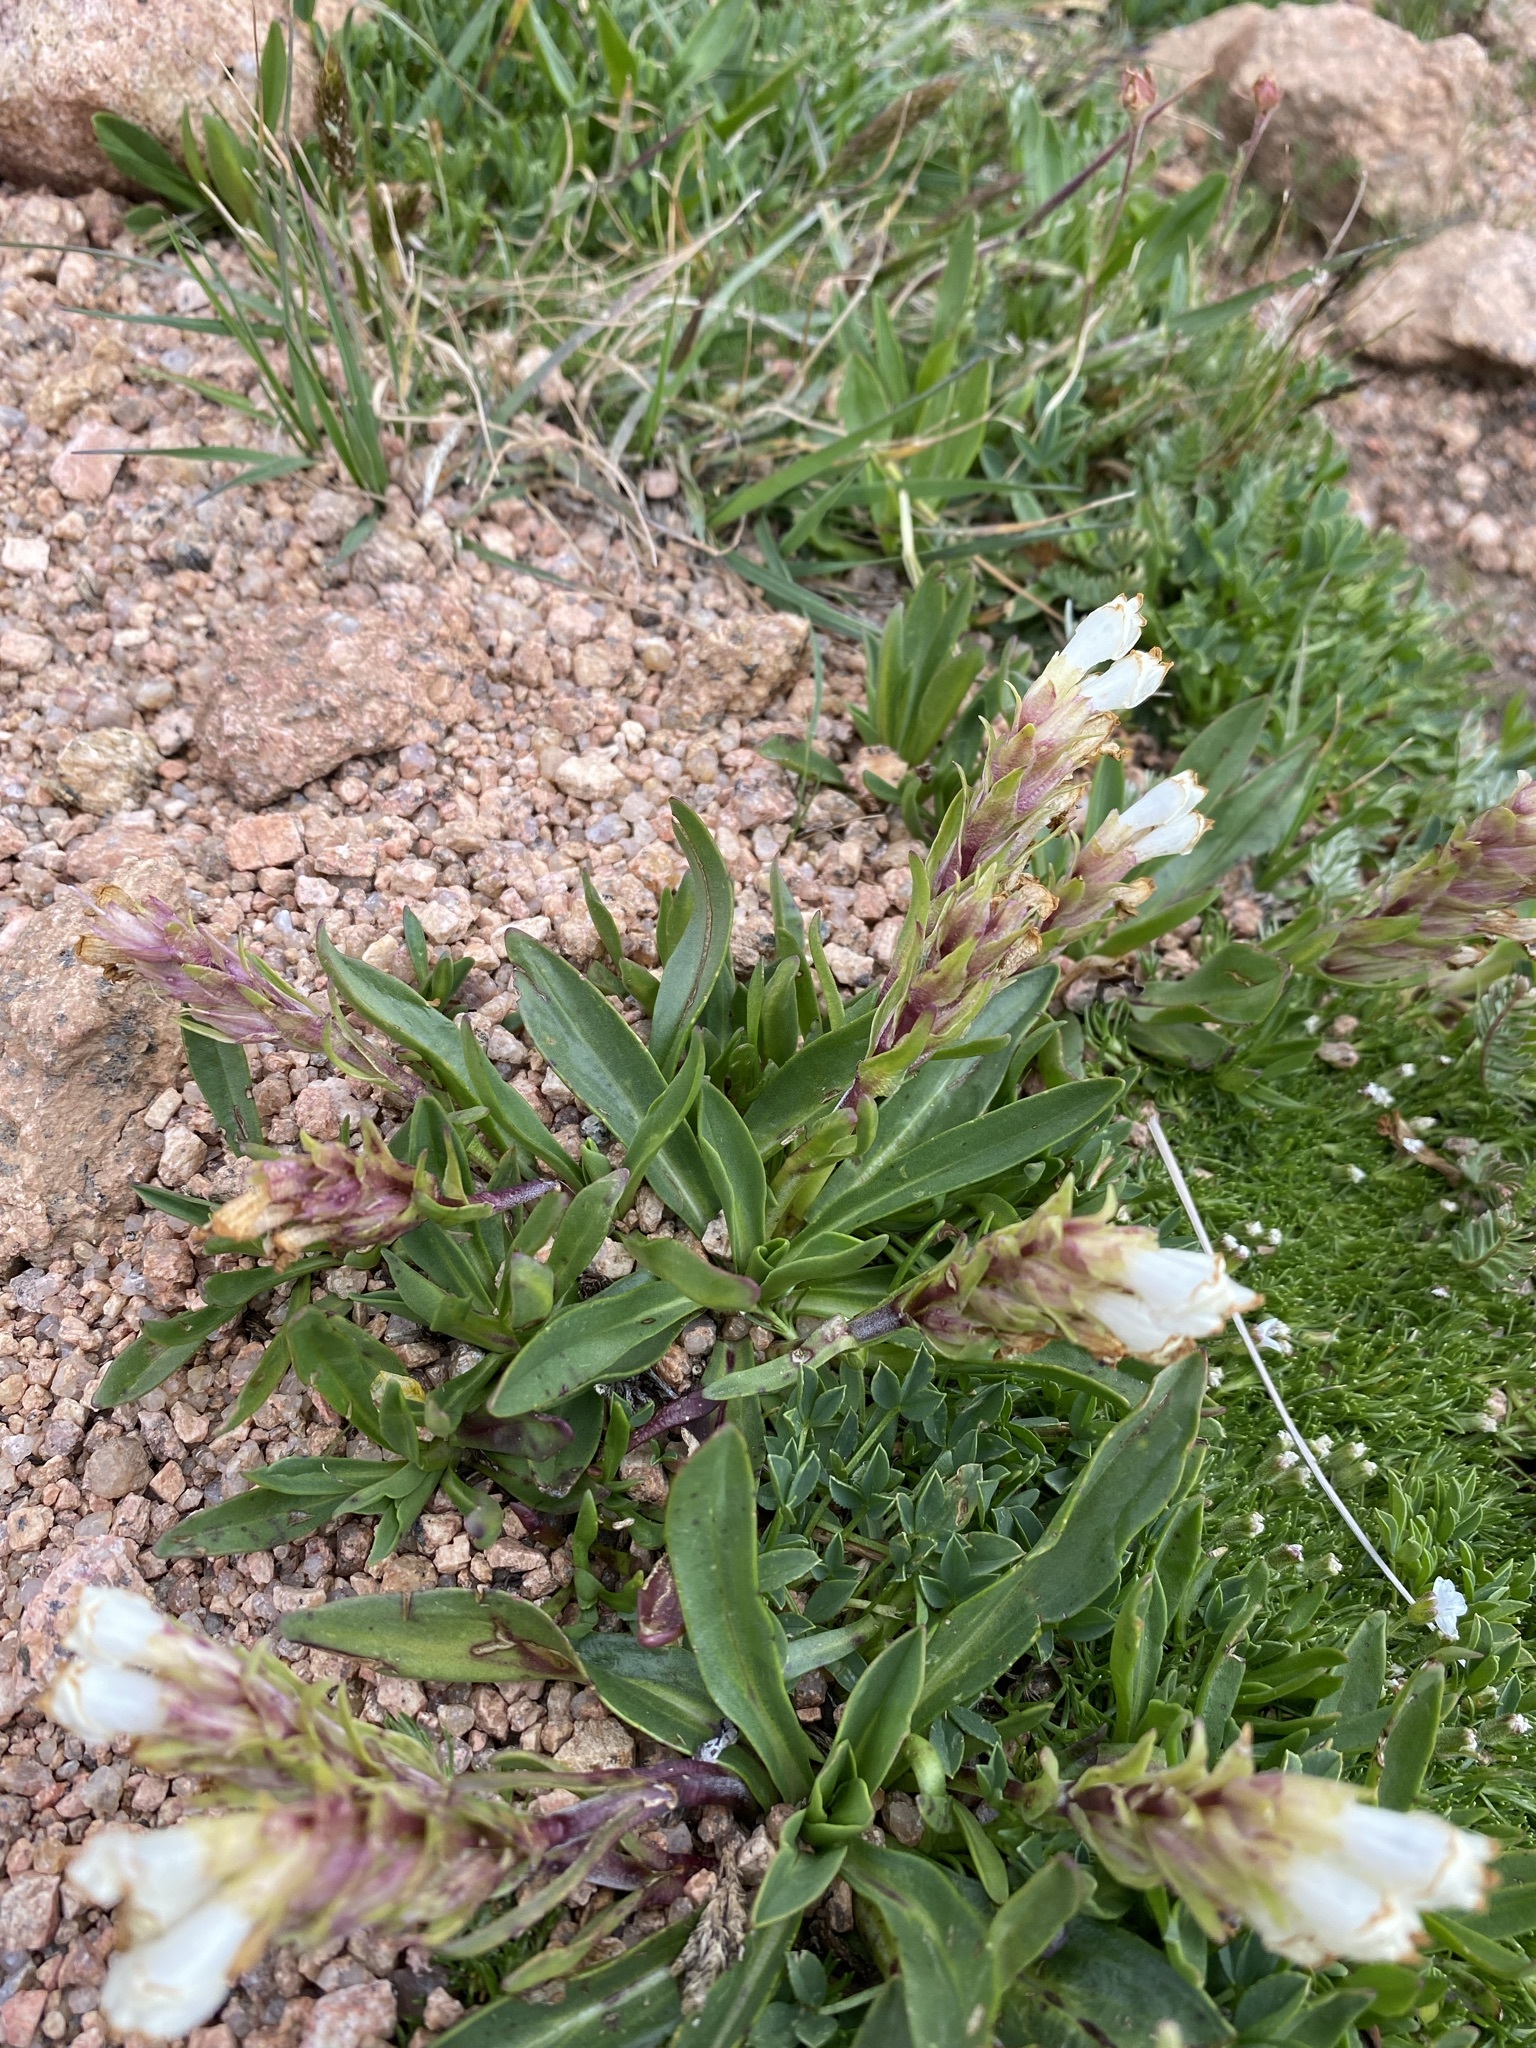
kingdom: Plantae
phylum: Tracheophyta
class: Magnoliopsida
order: Lamiales
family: Plantaginaceae
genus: Chionophila
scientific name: Chionophila jamesii
